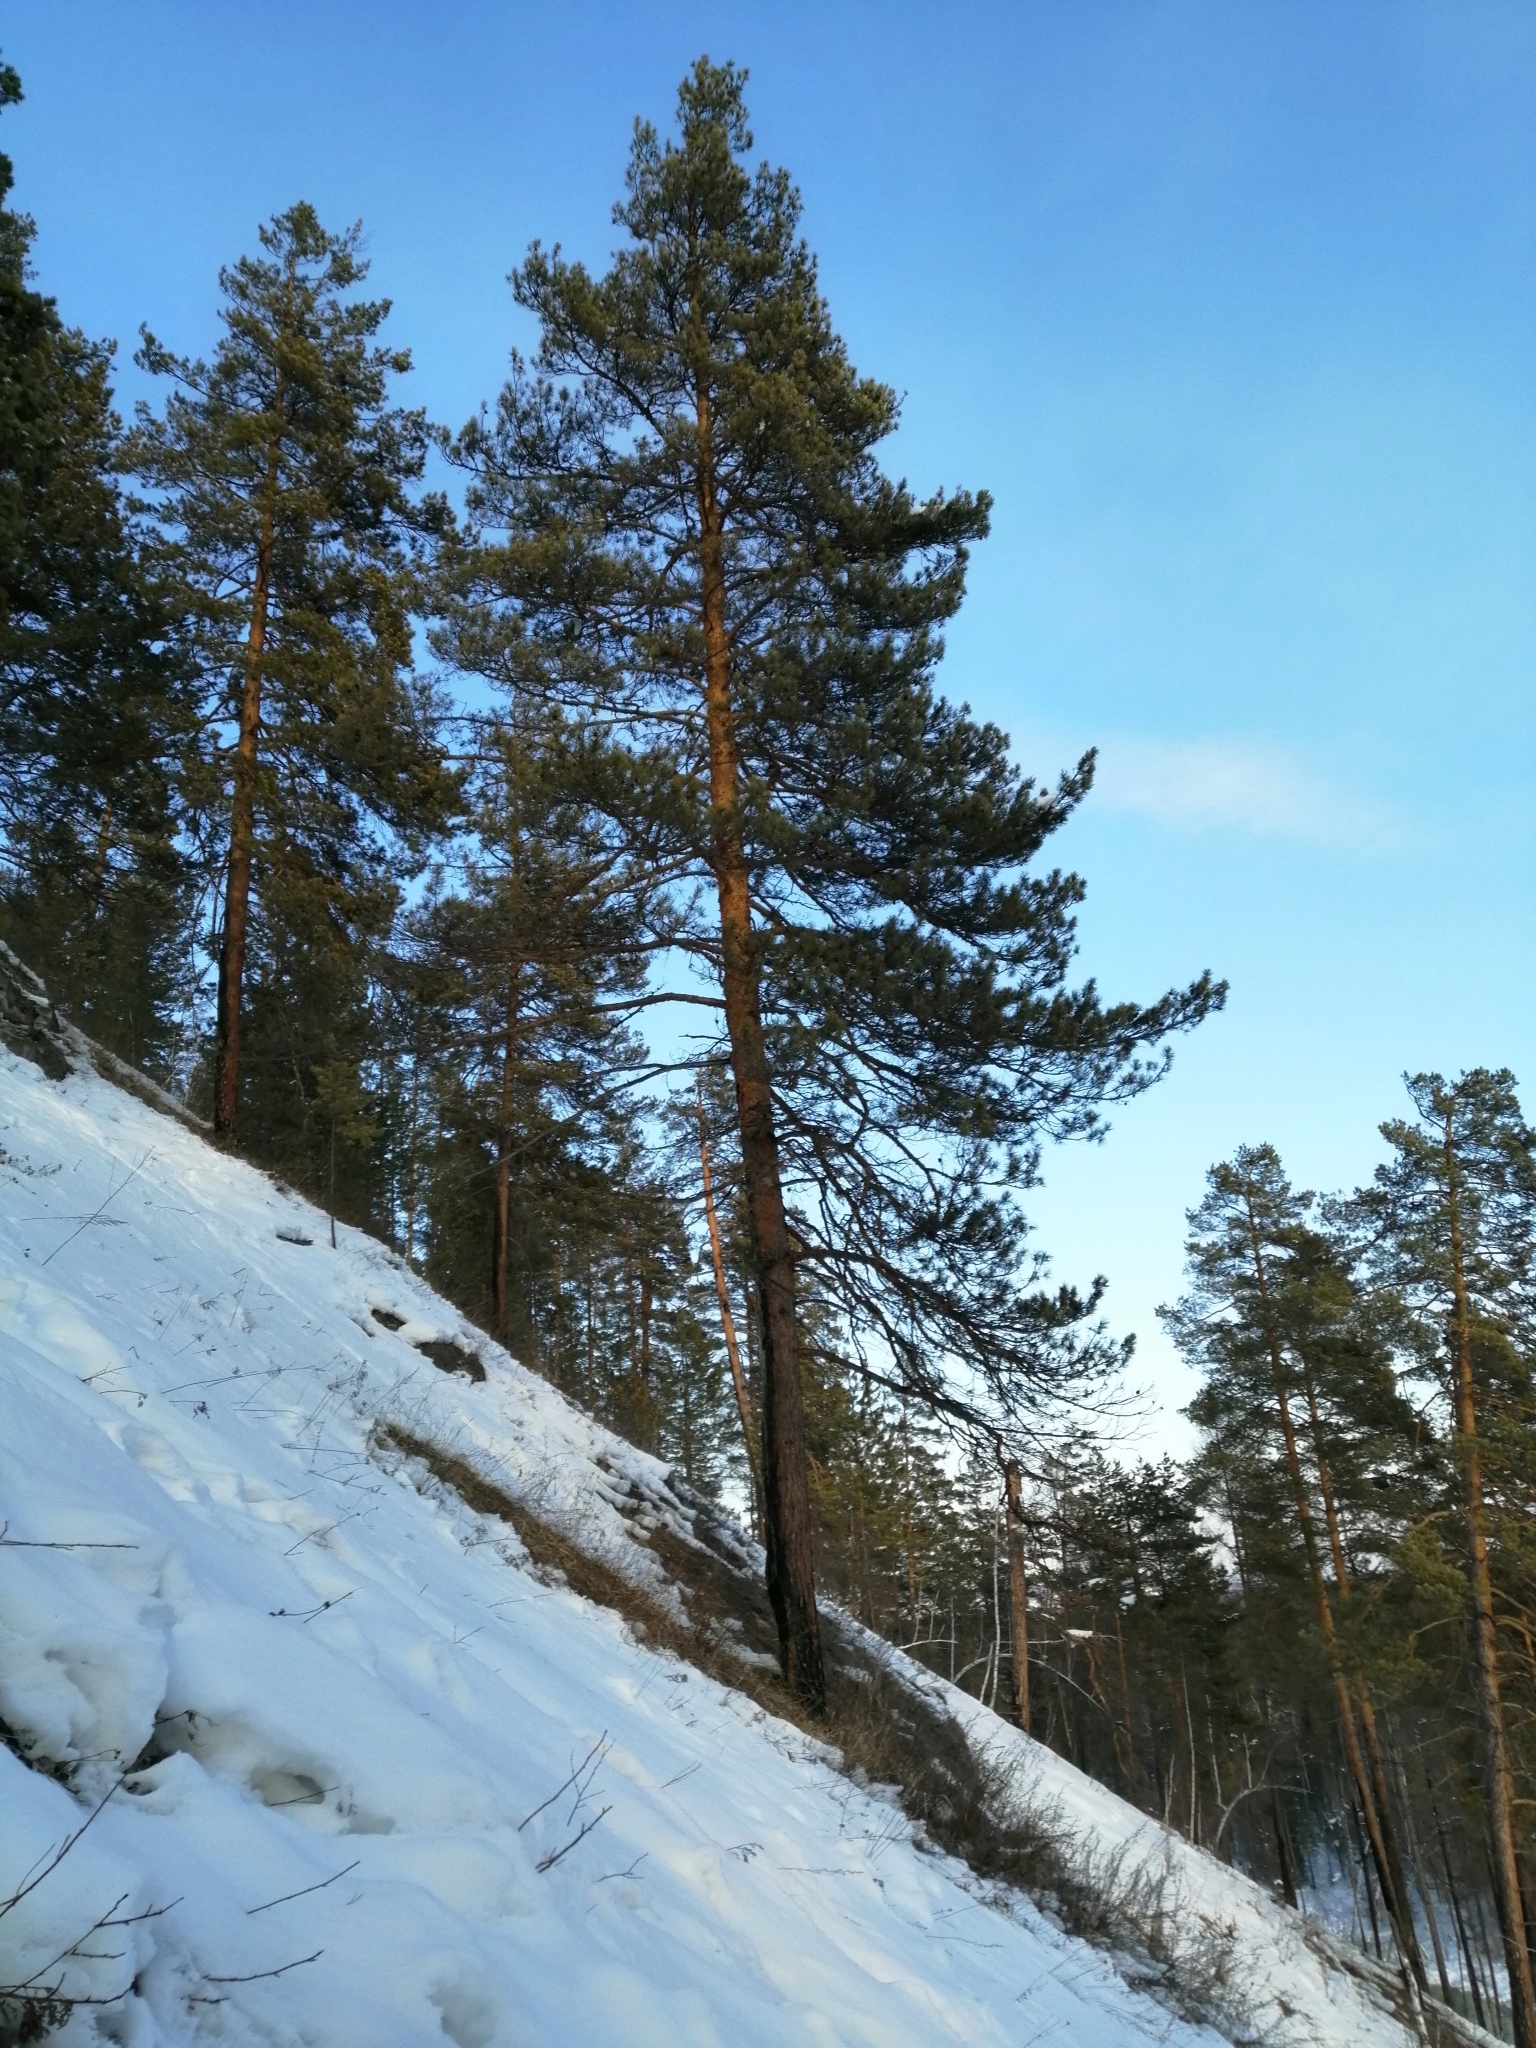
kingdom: Plantae
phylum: Tracheophyta
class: Pinopsida
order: Pinales
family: Pinaceae
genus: Pinus
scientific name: Pinus sylvestris
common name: Scots pine
